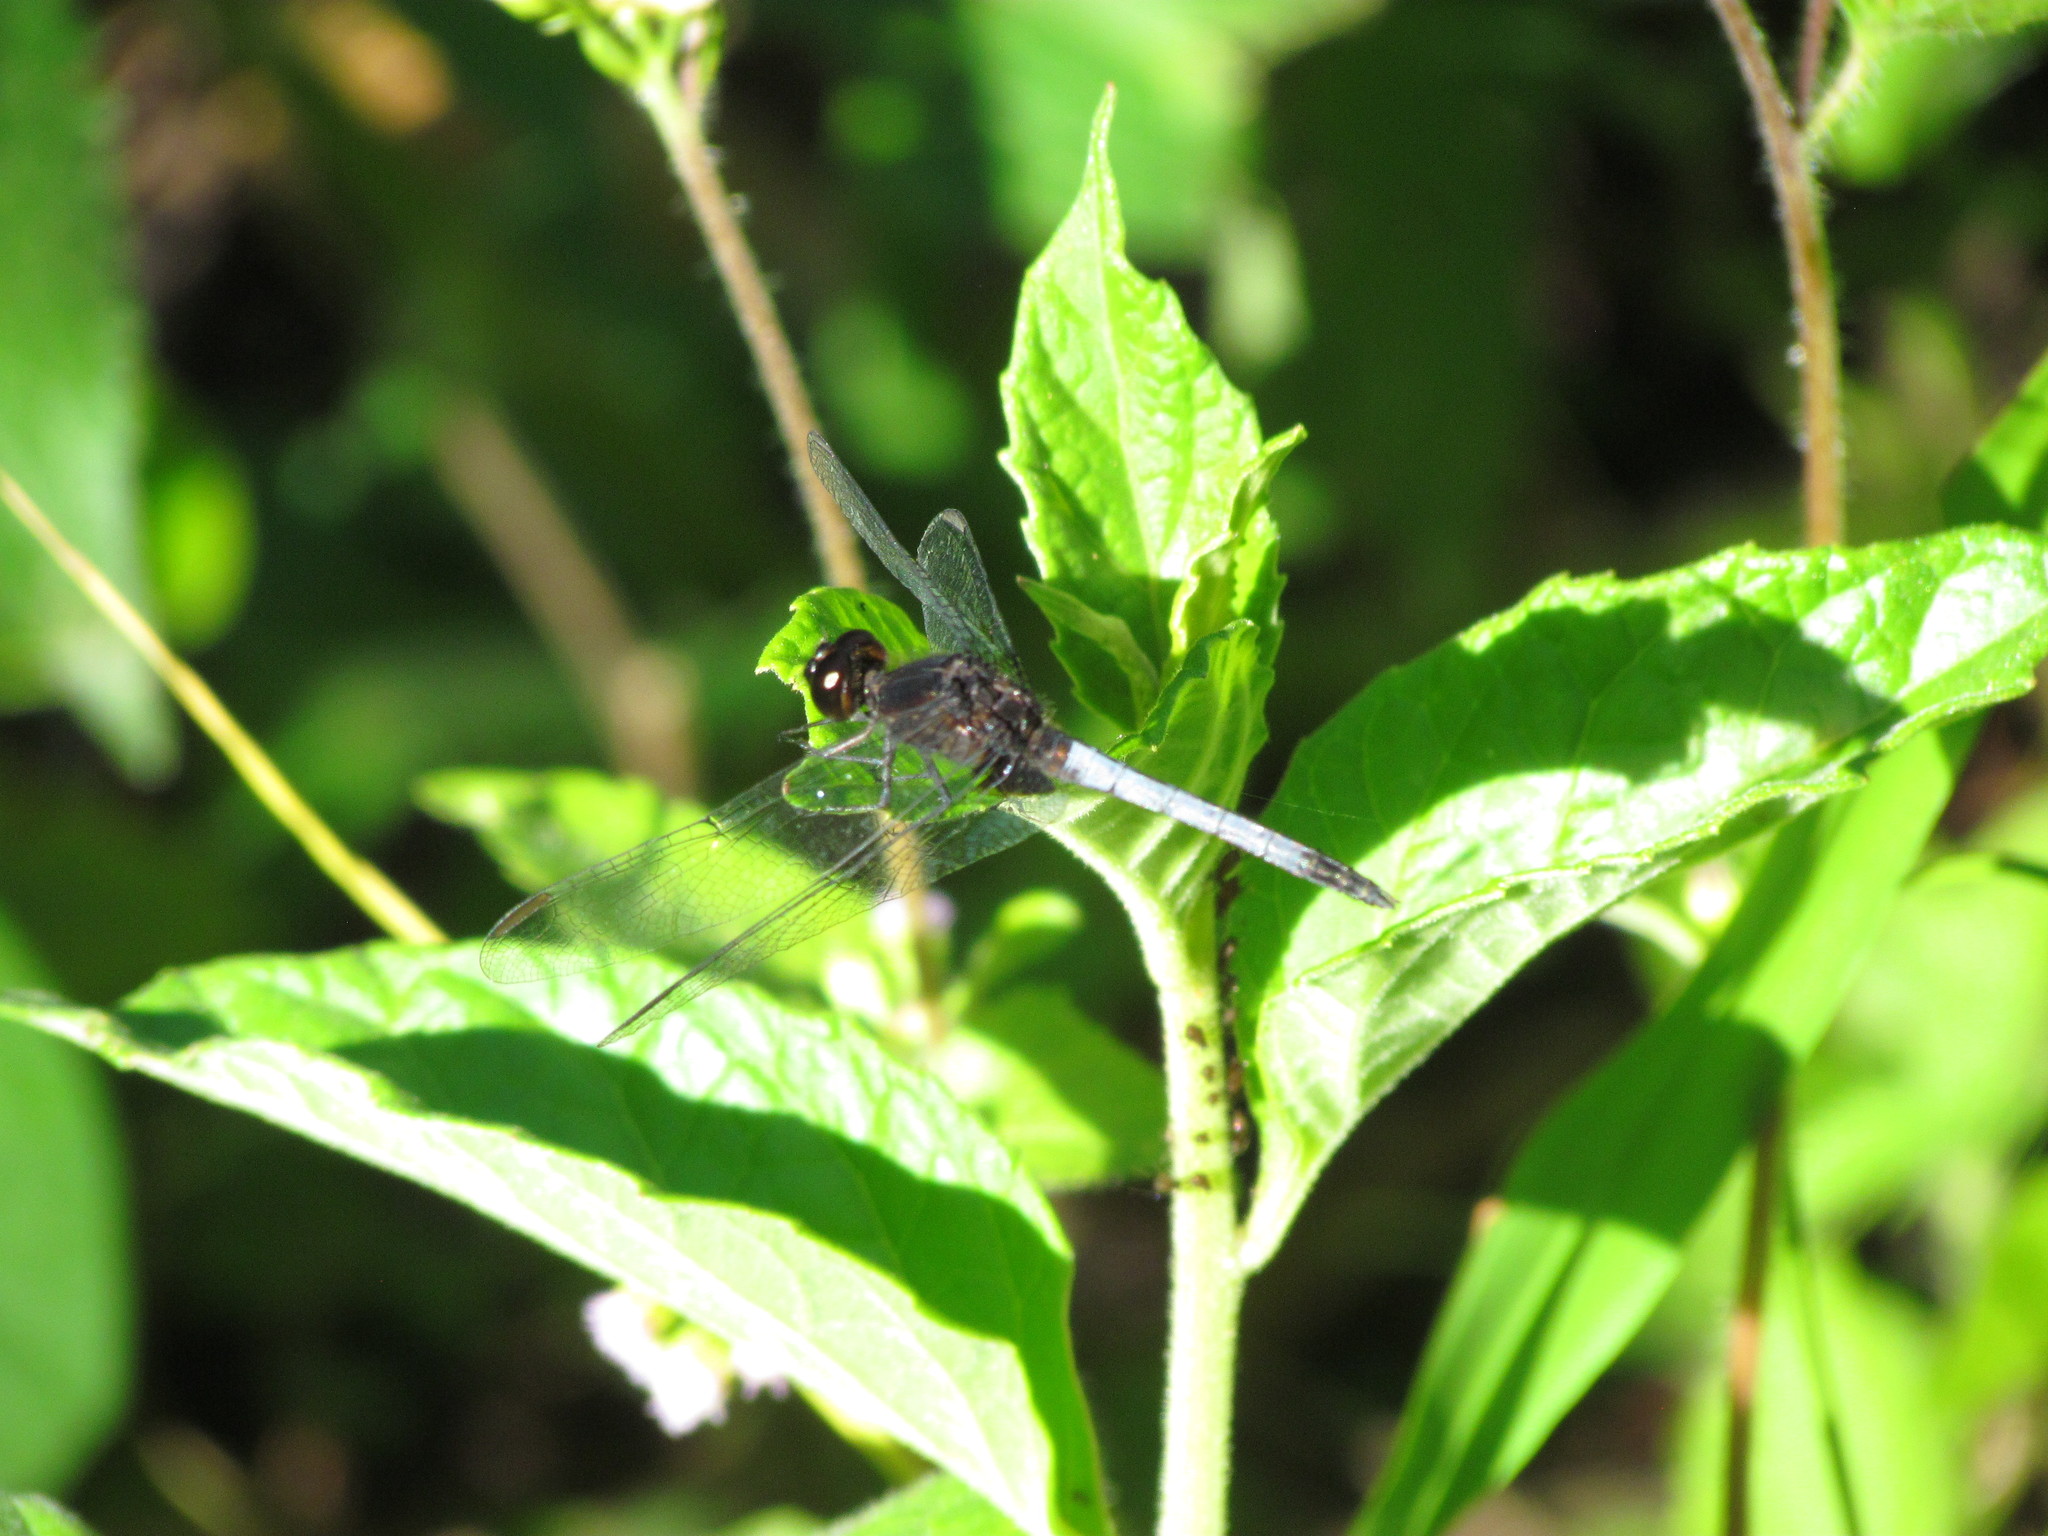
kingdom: Animalia
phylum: Arthropoda
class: Insecta
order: Odonata
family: Libellulidae
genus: Erythrodiplax
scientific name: Erythrodiplax media
